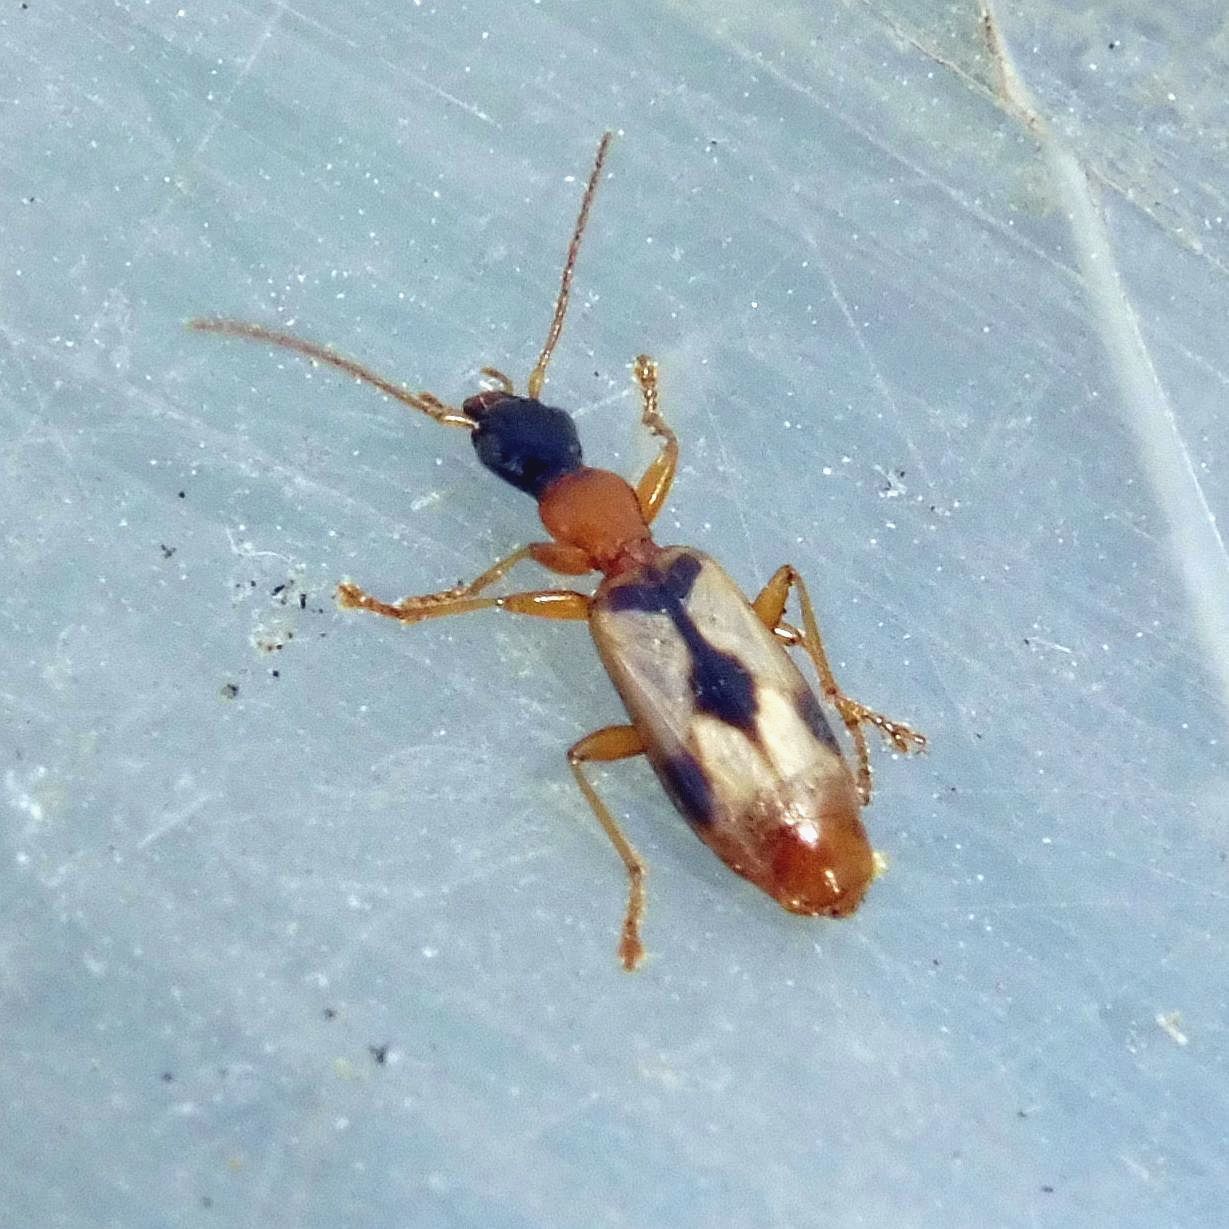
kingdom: Animalia
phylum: Arthropoda
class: Insecta
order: Coleoptera
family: Carabidae
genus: Demetrias
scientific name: Demetrias imperialis
